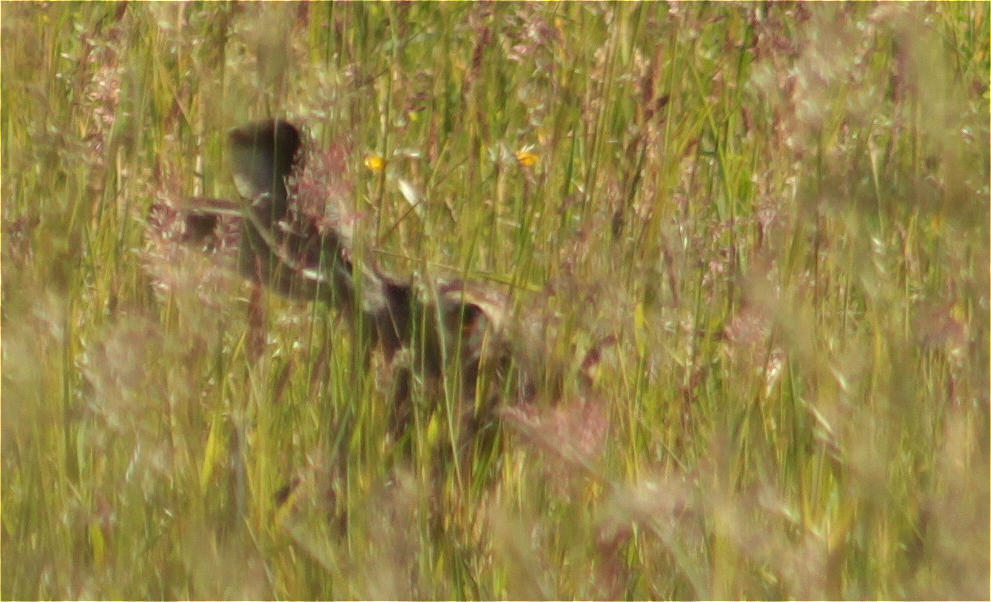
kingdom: Animalia
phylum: Chordata
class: Mammalia
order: Lagomorpha
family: Leporidae
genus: Lepus
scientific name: Lepus europaeus
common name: European hare
